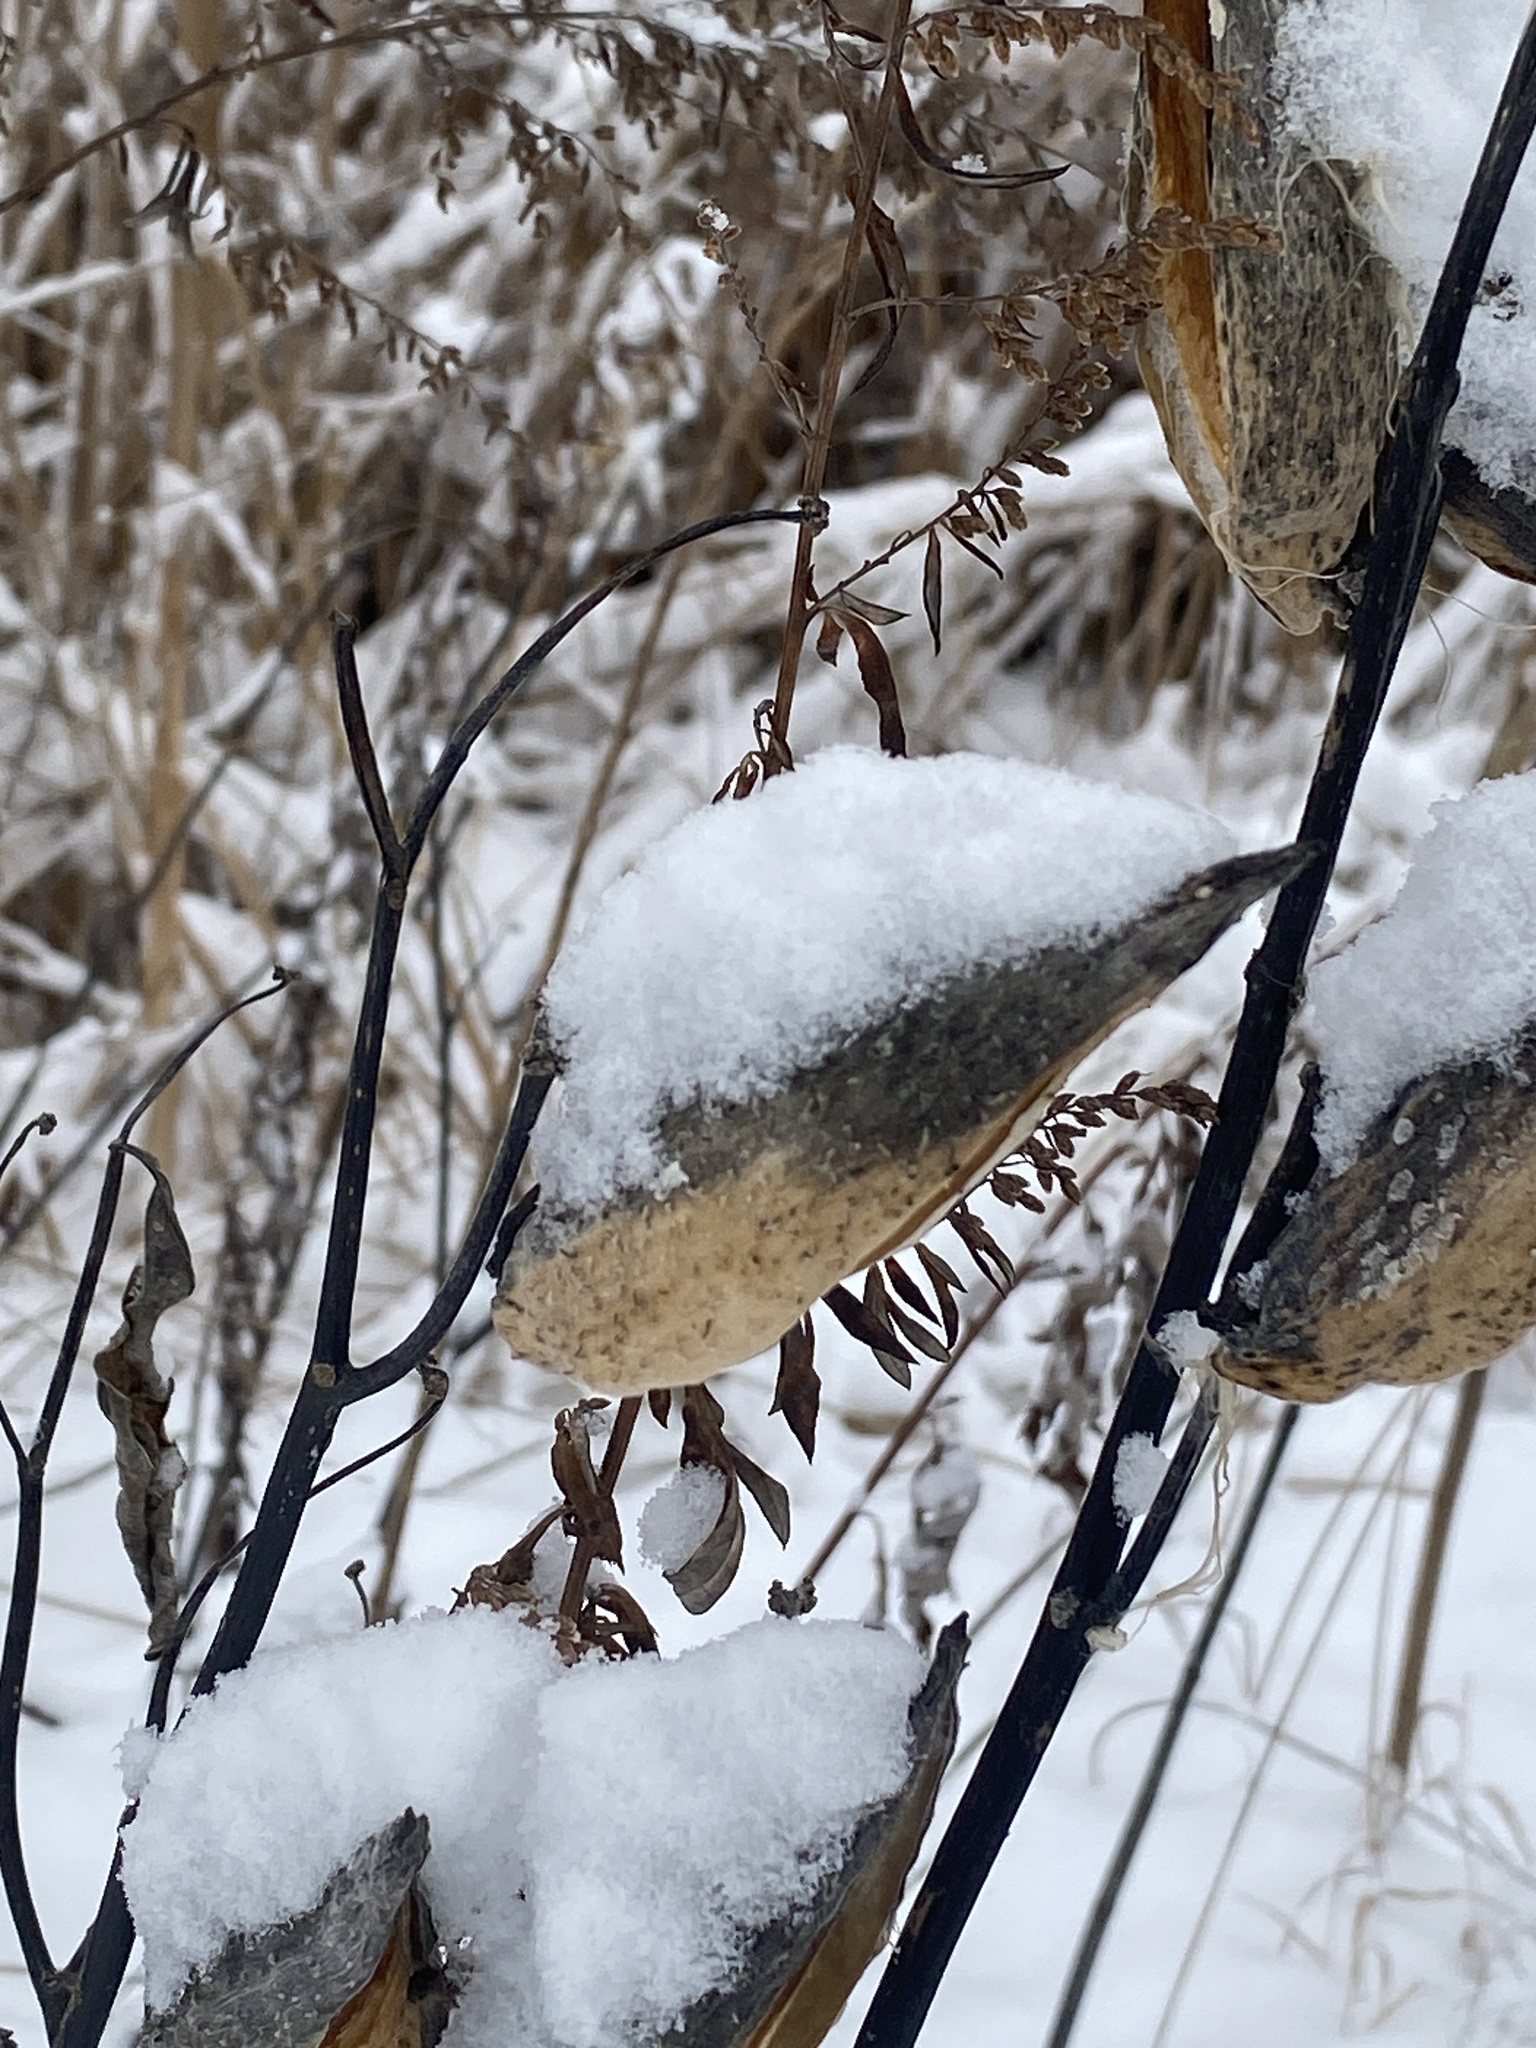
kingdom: Plantae
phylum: Tracheophyta
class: Magnoliopsida
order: Gentianales
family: Apocynaceae
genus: Asclepias
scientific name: Asclepias syriaca
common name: Common milkweed
